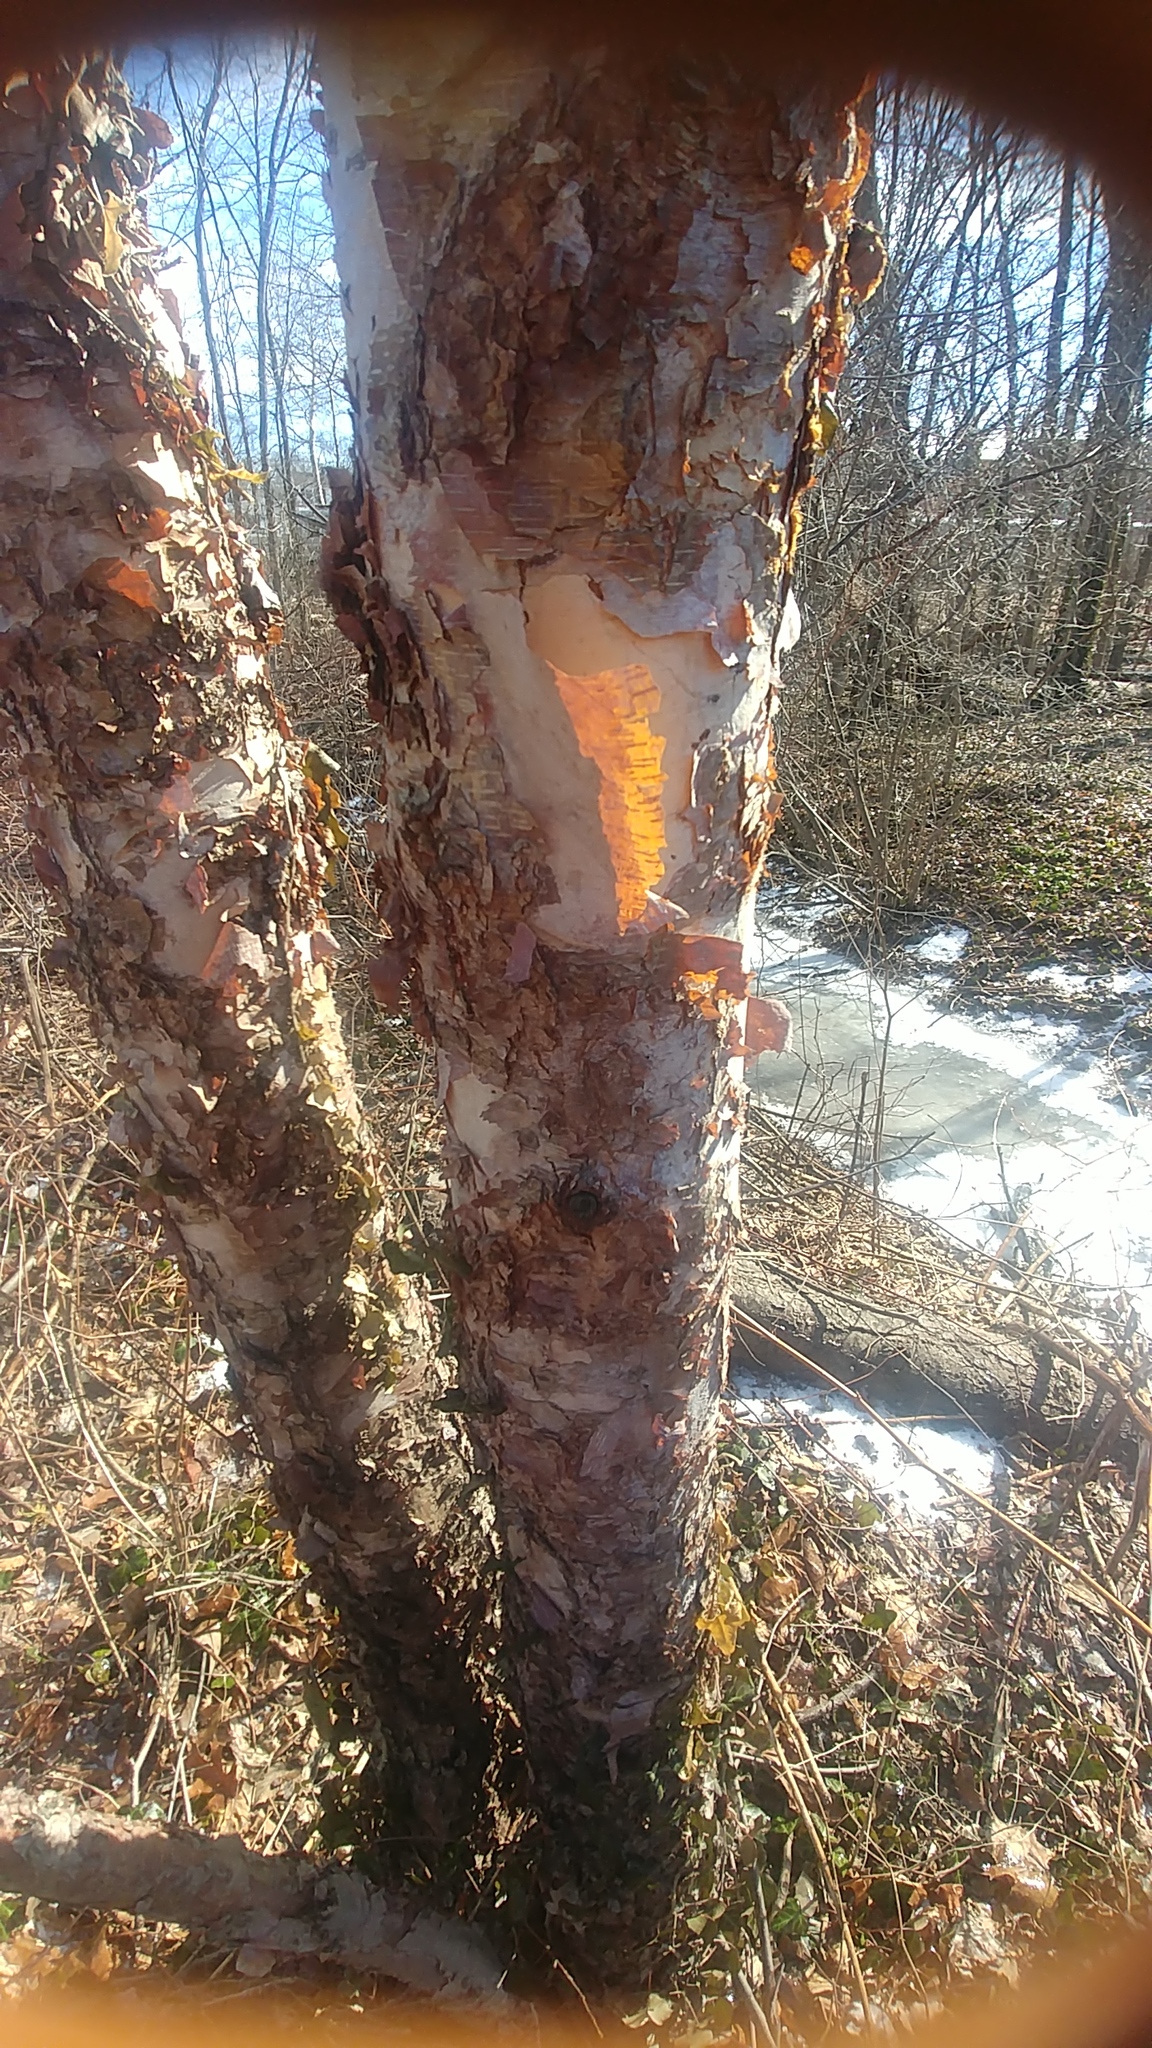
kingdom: Plantae
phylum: Tracheophyta
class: Magnoliopsida
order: Fagales
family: Betulaceae
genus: Betula
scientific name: Betula nigra
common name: Black birch
